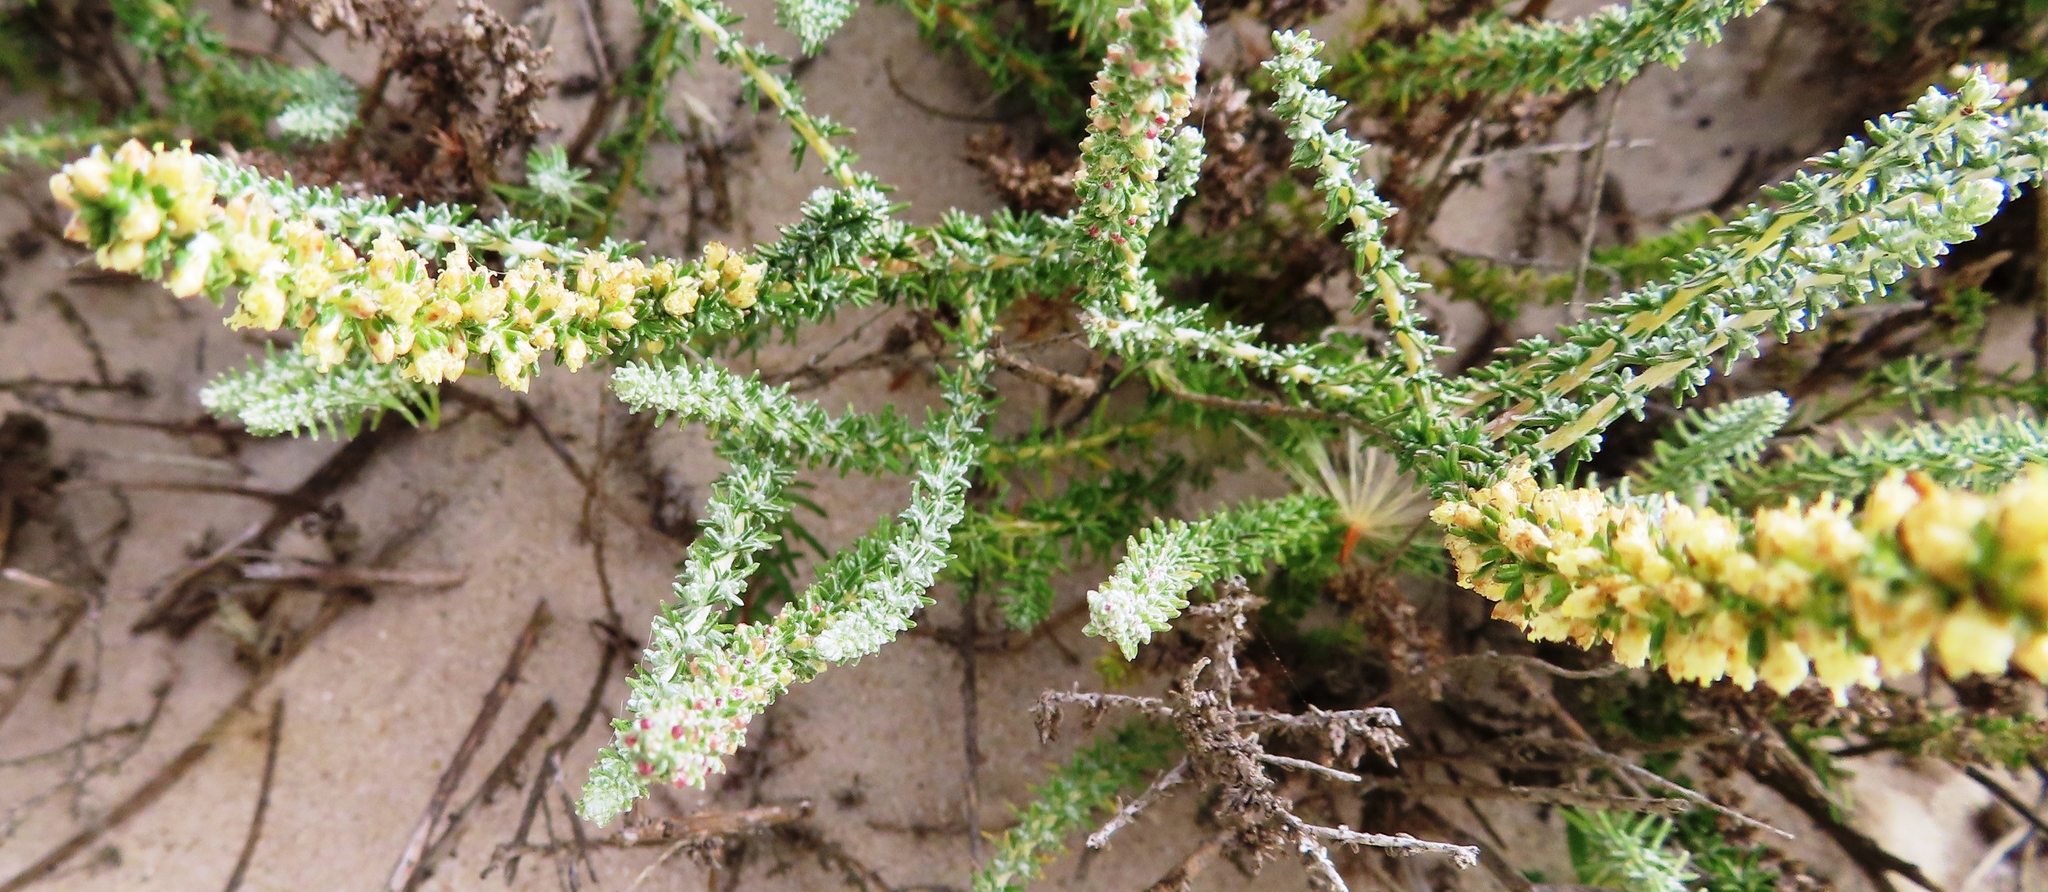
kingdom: Plantae
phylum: Tracheophyta
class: Magnoliopsida
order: Asterales
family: Asteraceae
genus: Ifloga
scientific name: Ifloga ambigua
